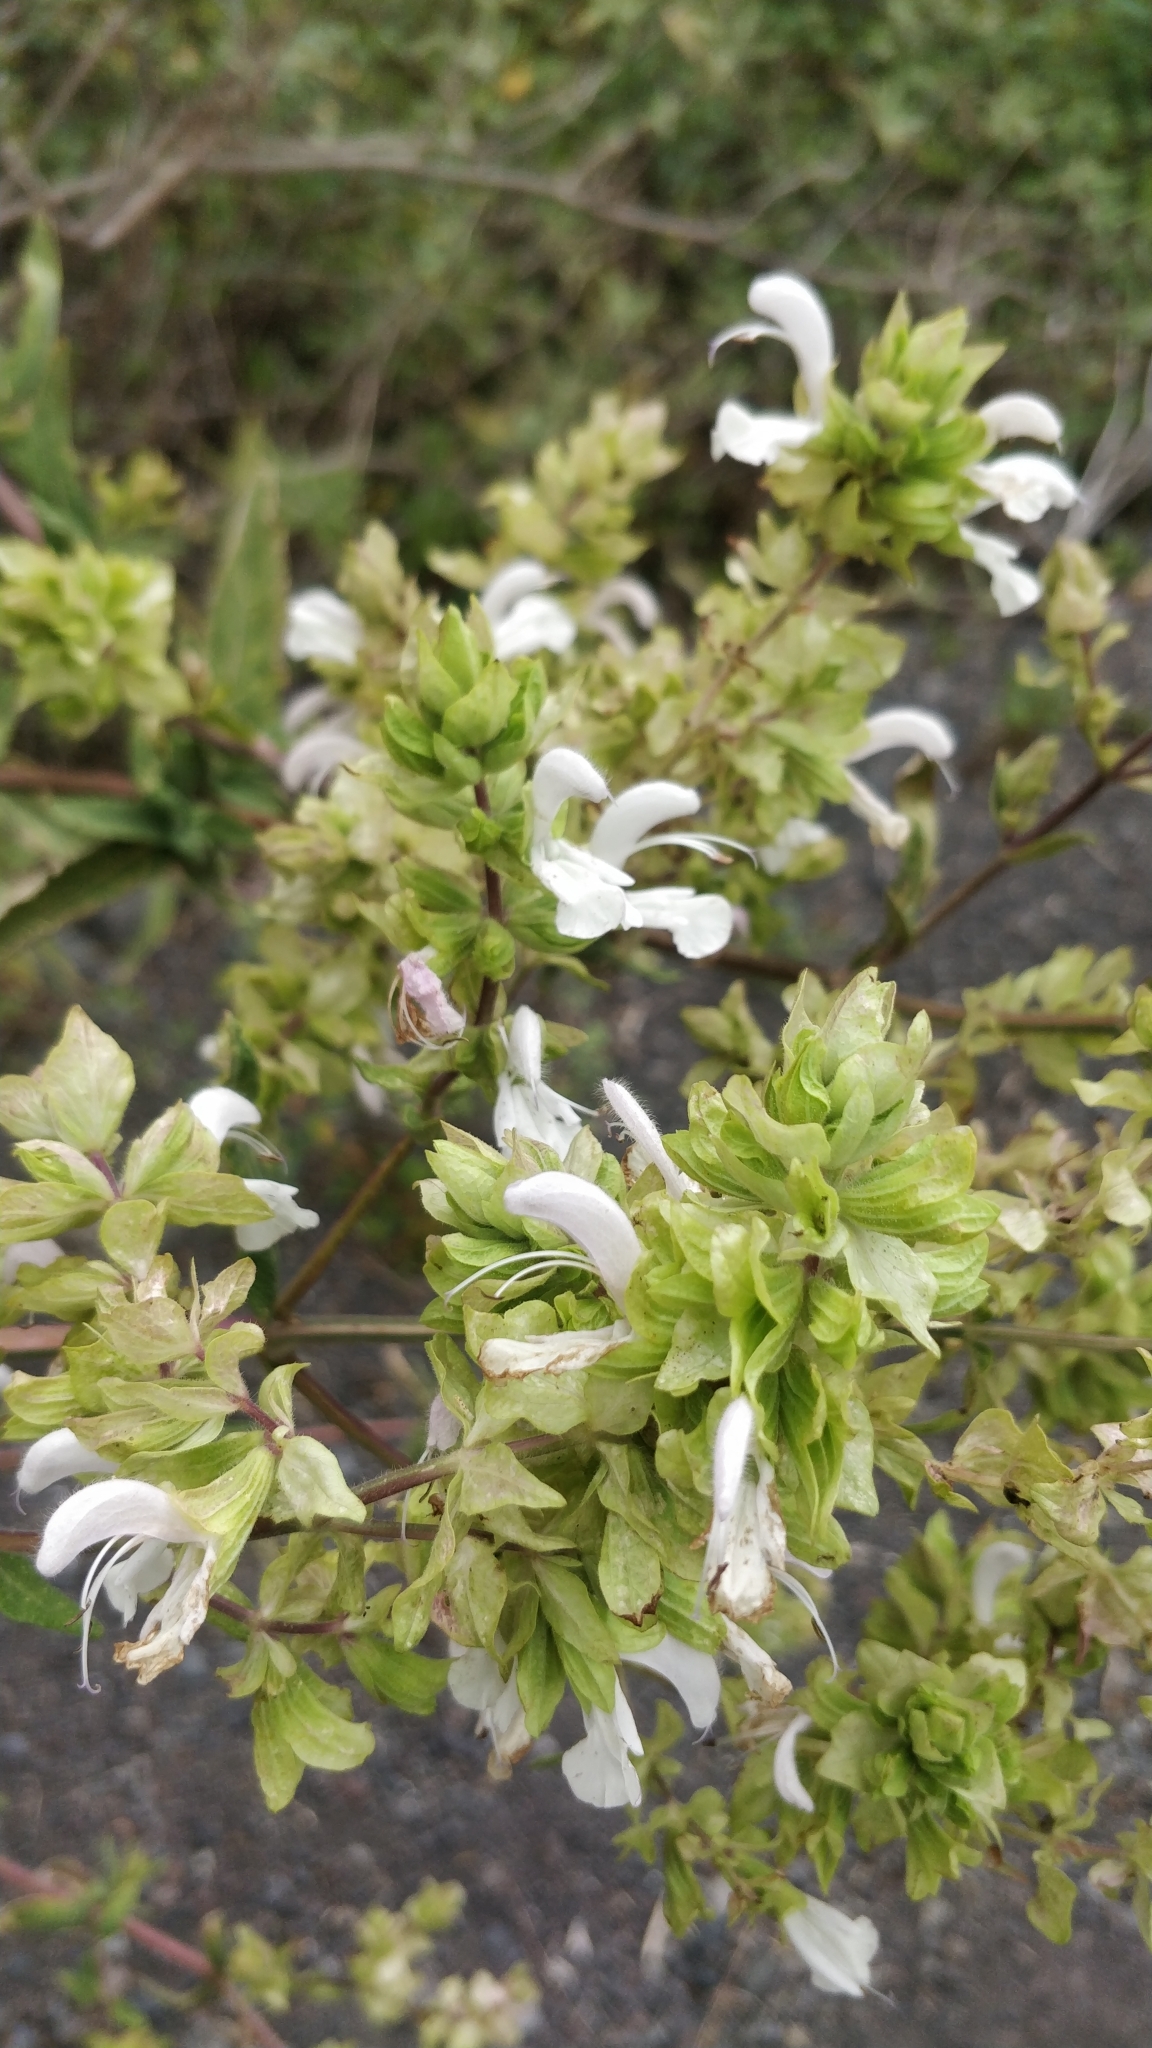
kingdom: Plantae
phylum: Tracheophyta
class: Magnoliopsida
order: Lamiales
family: Lamiaceae
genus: Salvia
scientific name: Salvia canariensis
